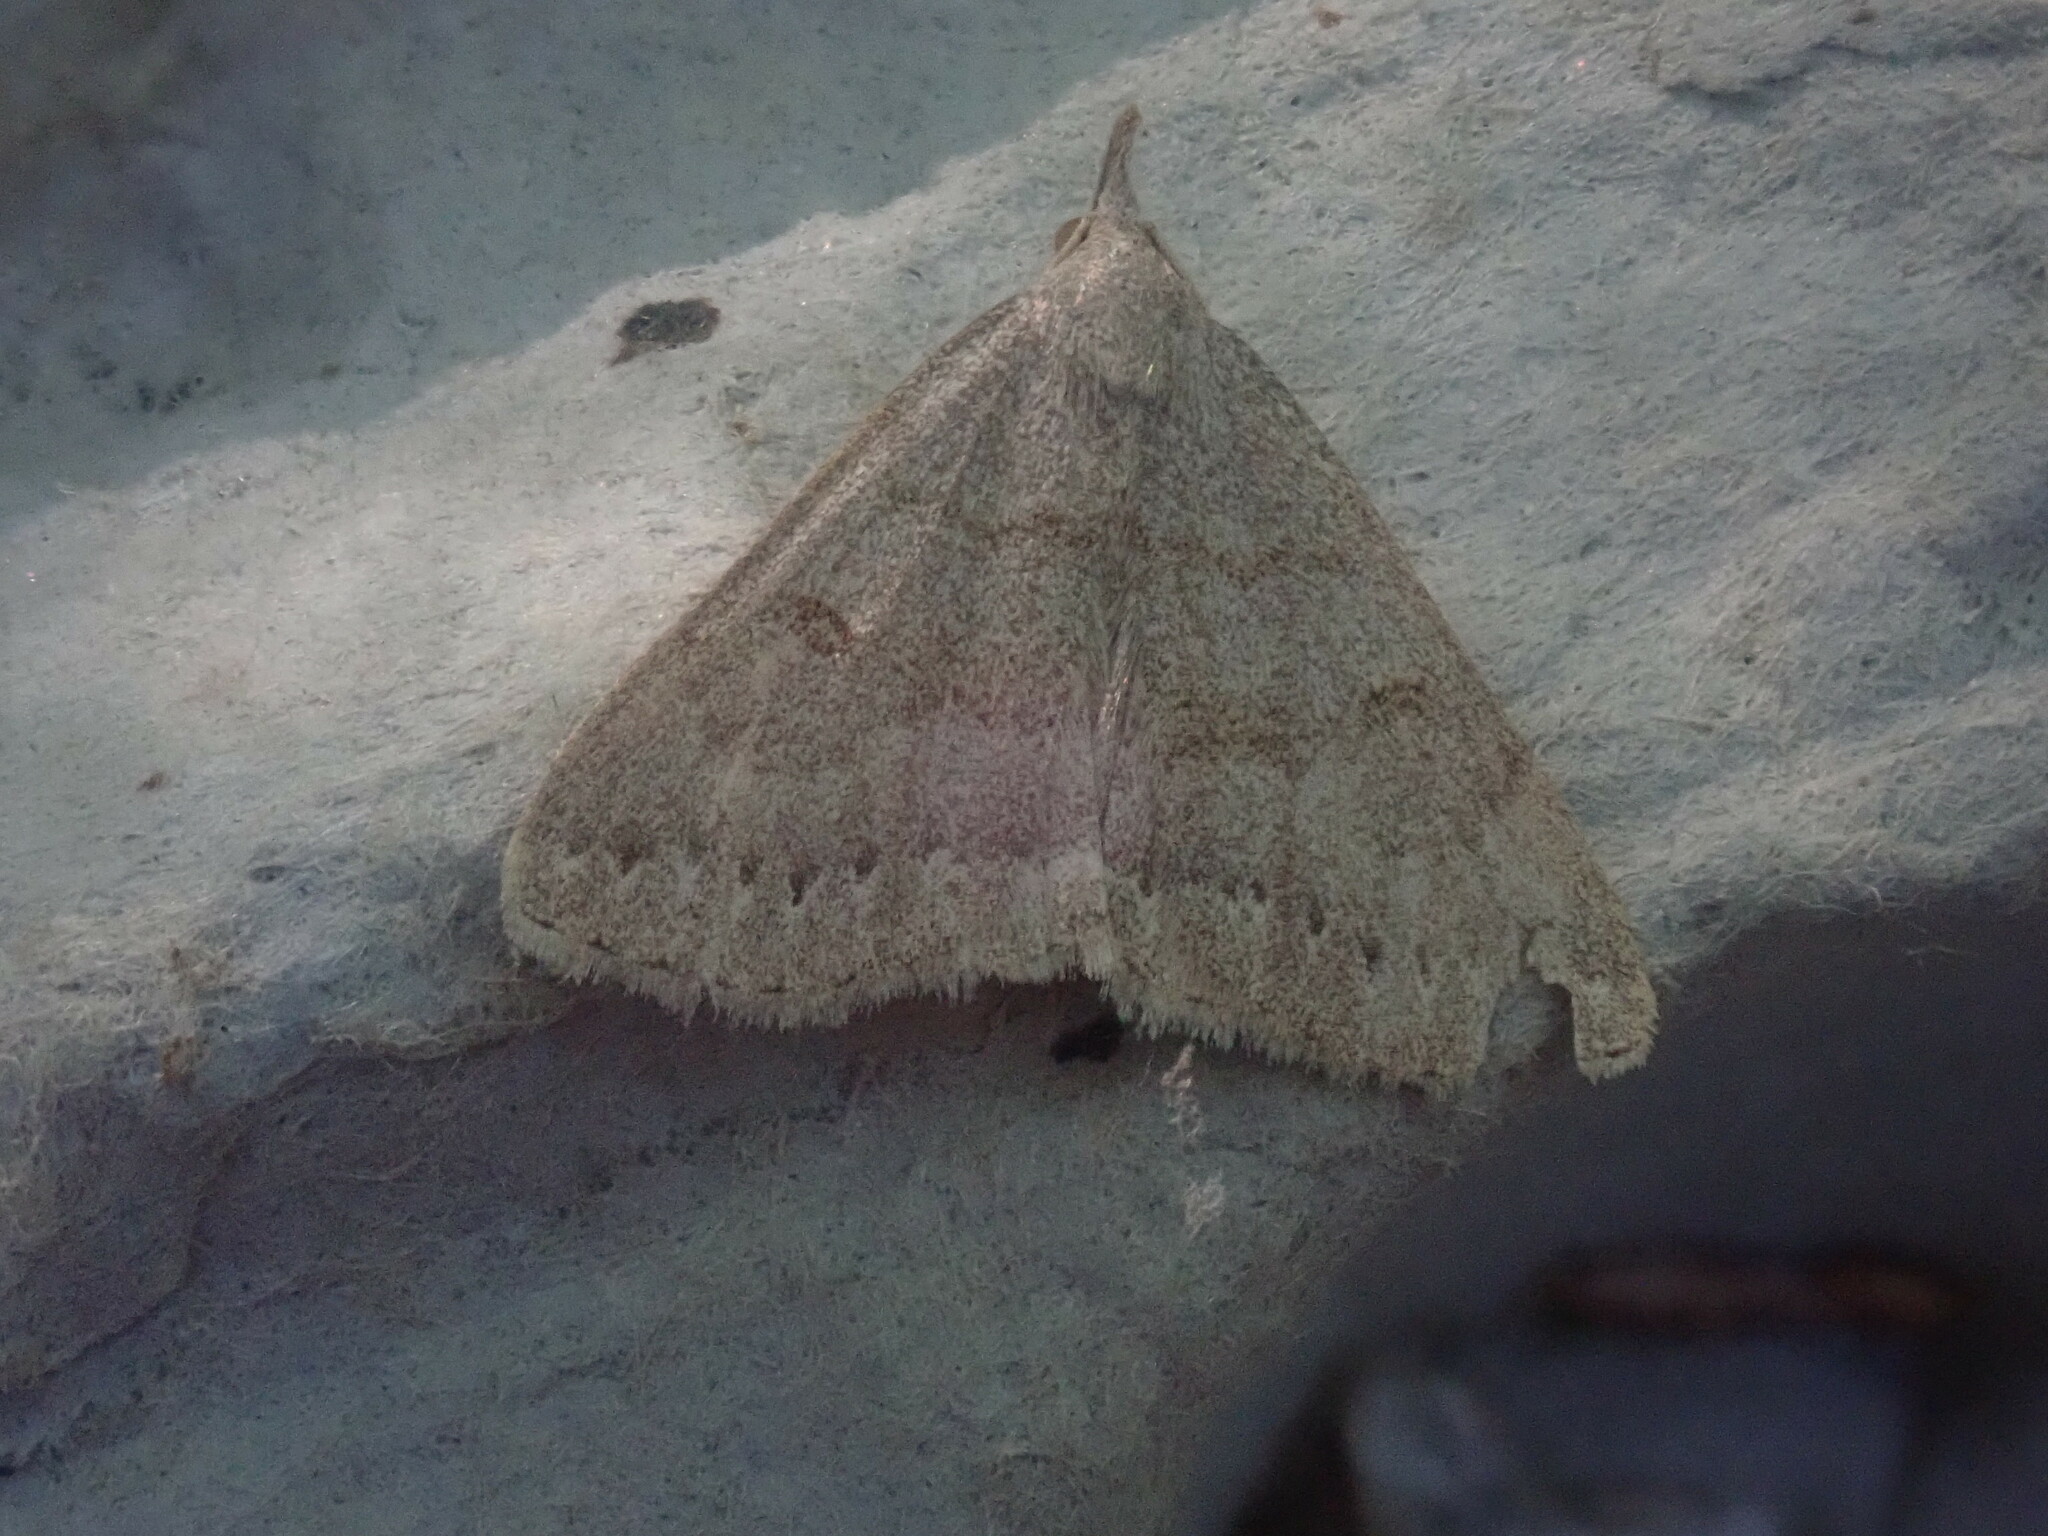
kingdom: Animalia
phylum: Arthropoda
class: Insecta
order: Lepidoptera
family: Erebidae
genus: Macrochilo
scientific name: Macrochilo morbidalis
